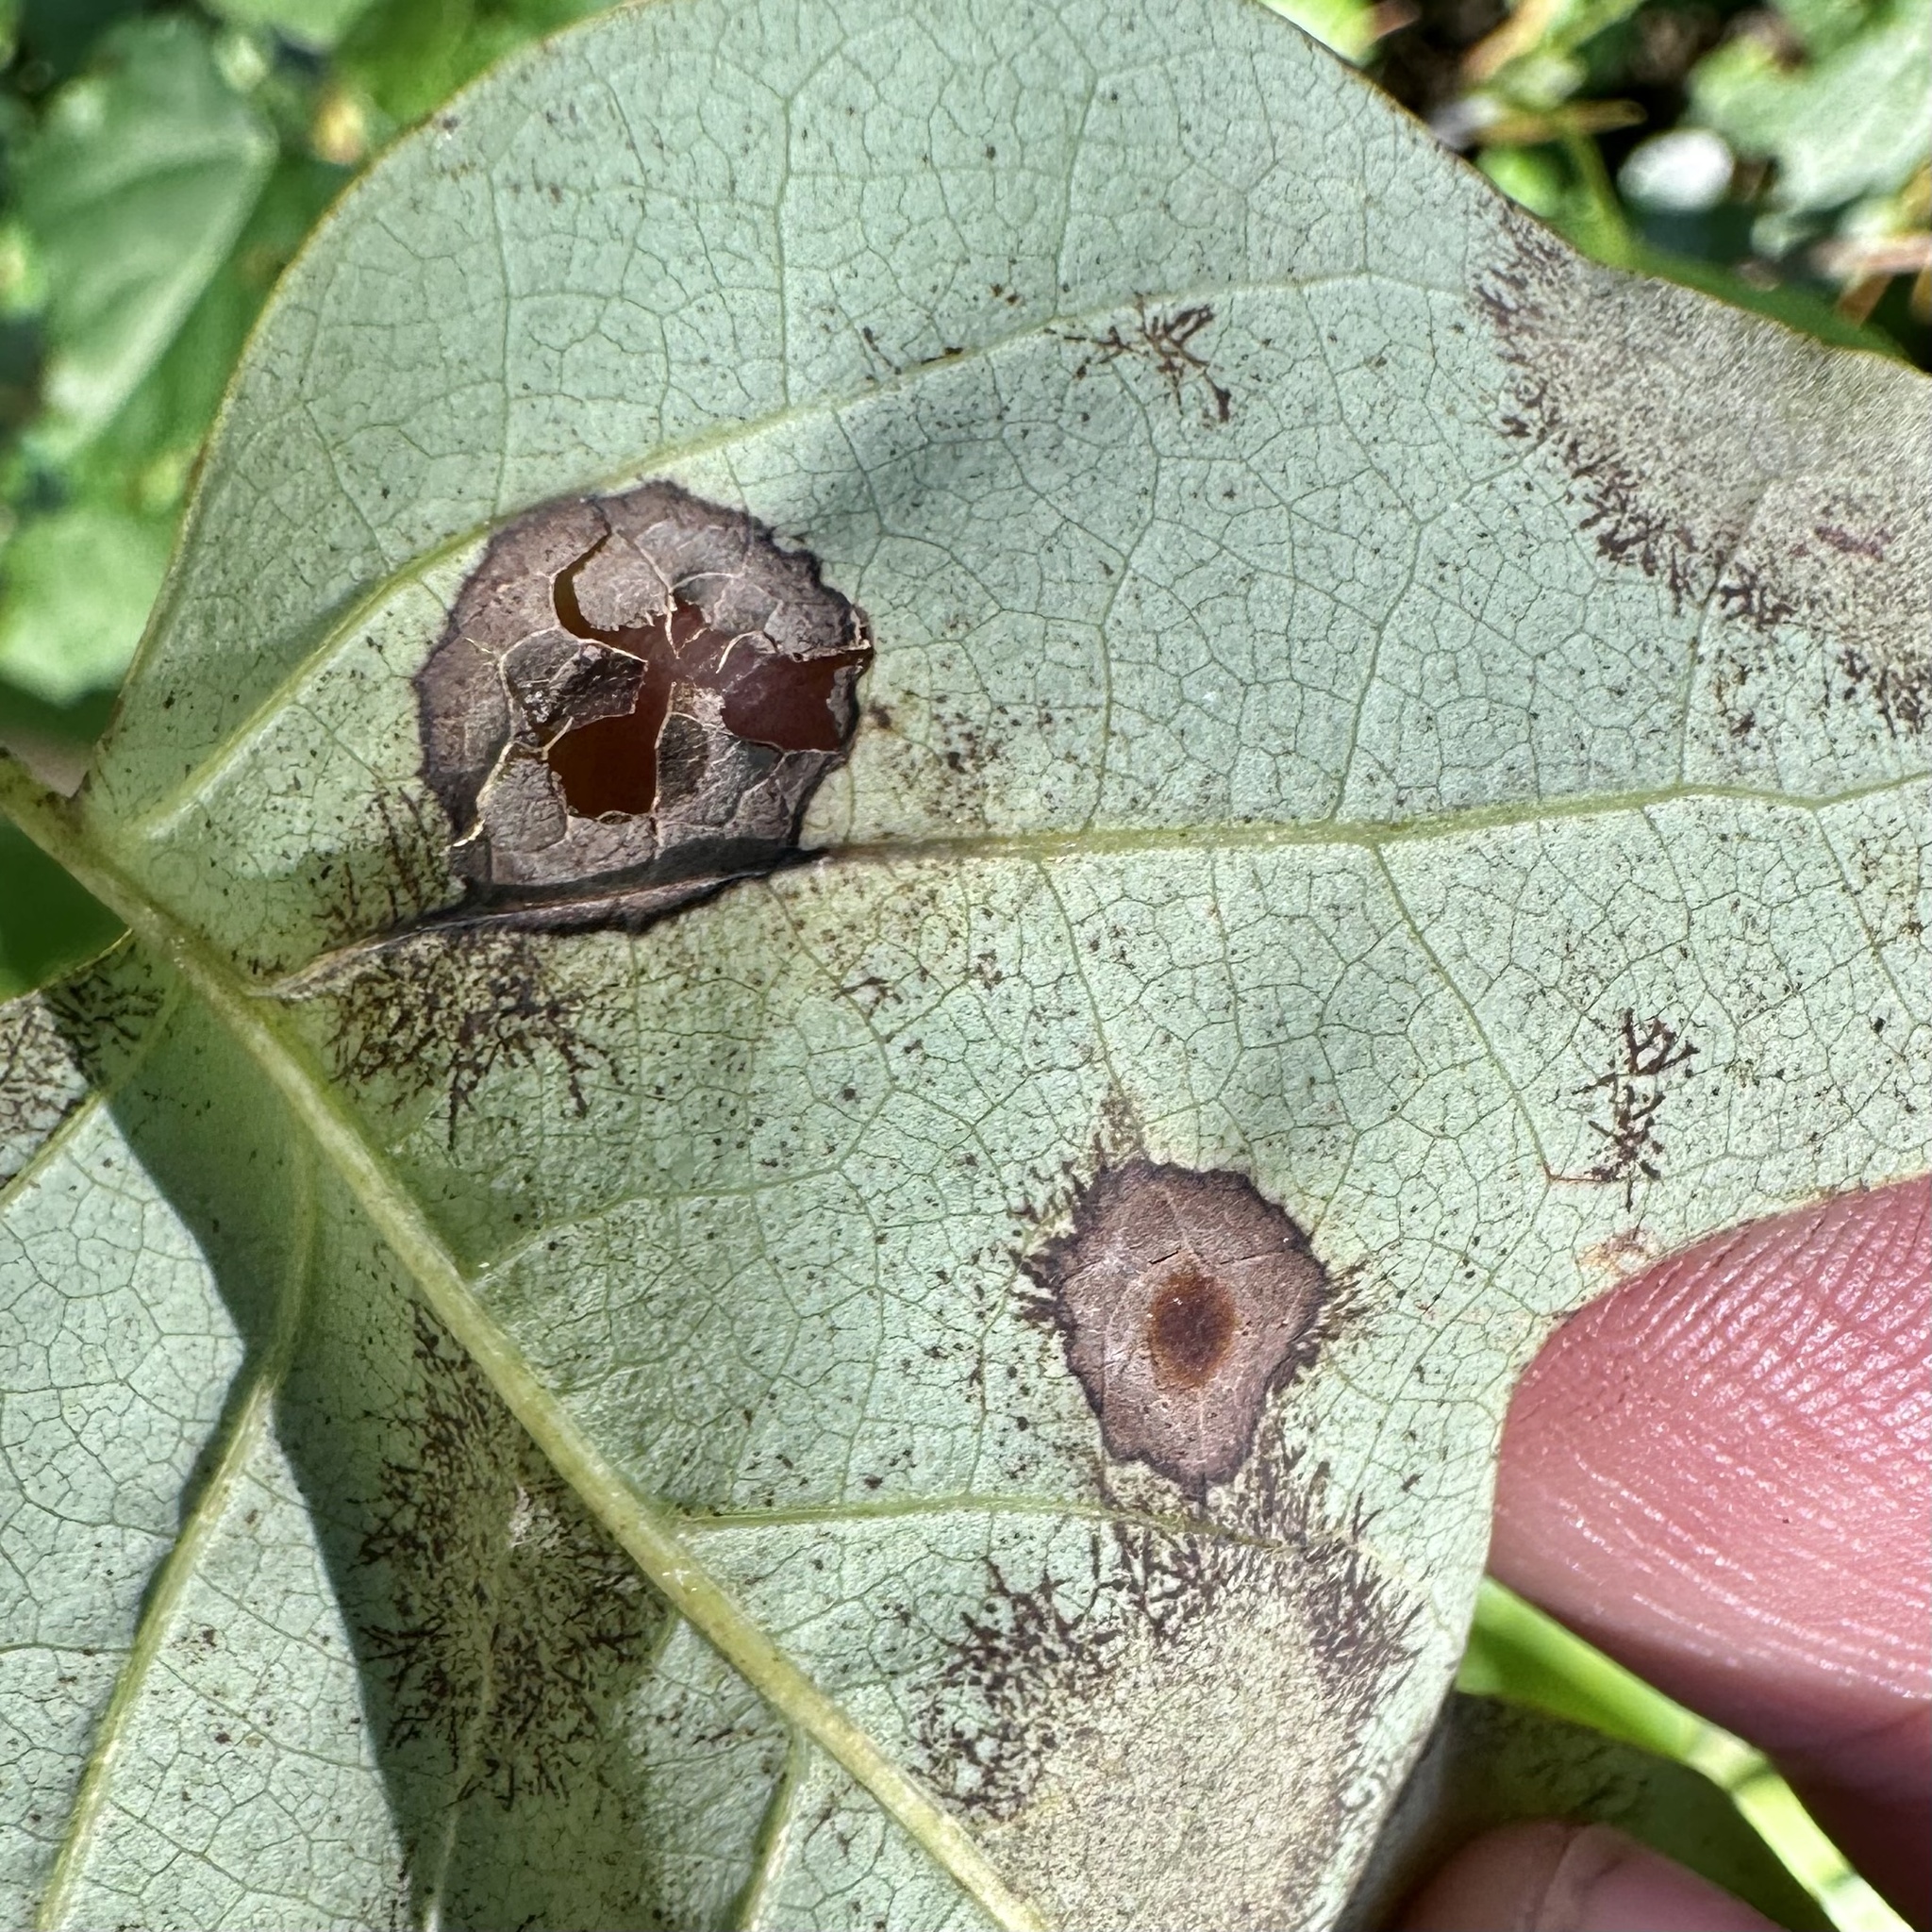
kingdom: Animalia
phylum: Arthropoda
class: Insecta
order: Diptera
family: Cecidomyiidae
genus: Resseliella
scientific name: Resseliella liriodendri
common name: Tulip tree leaf spot gall midge
